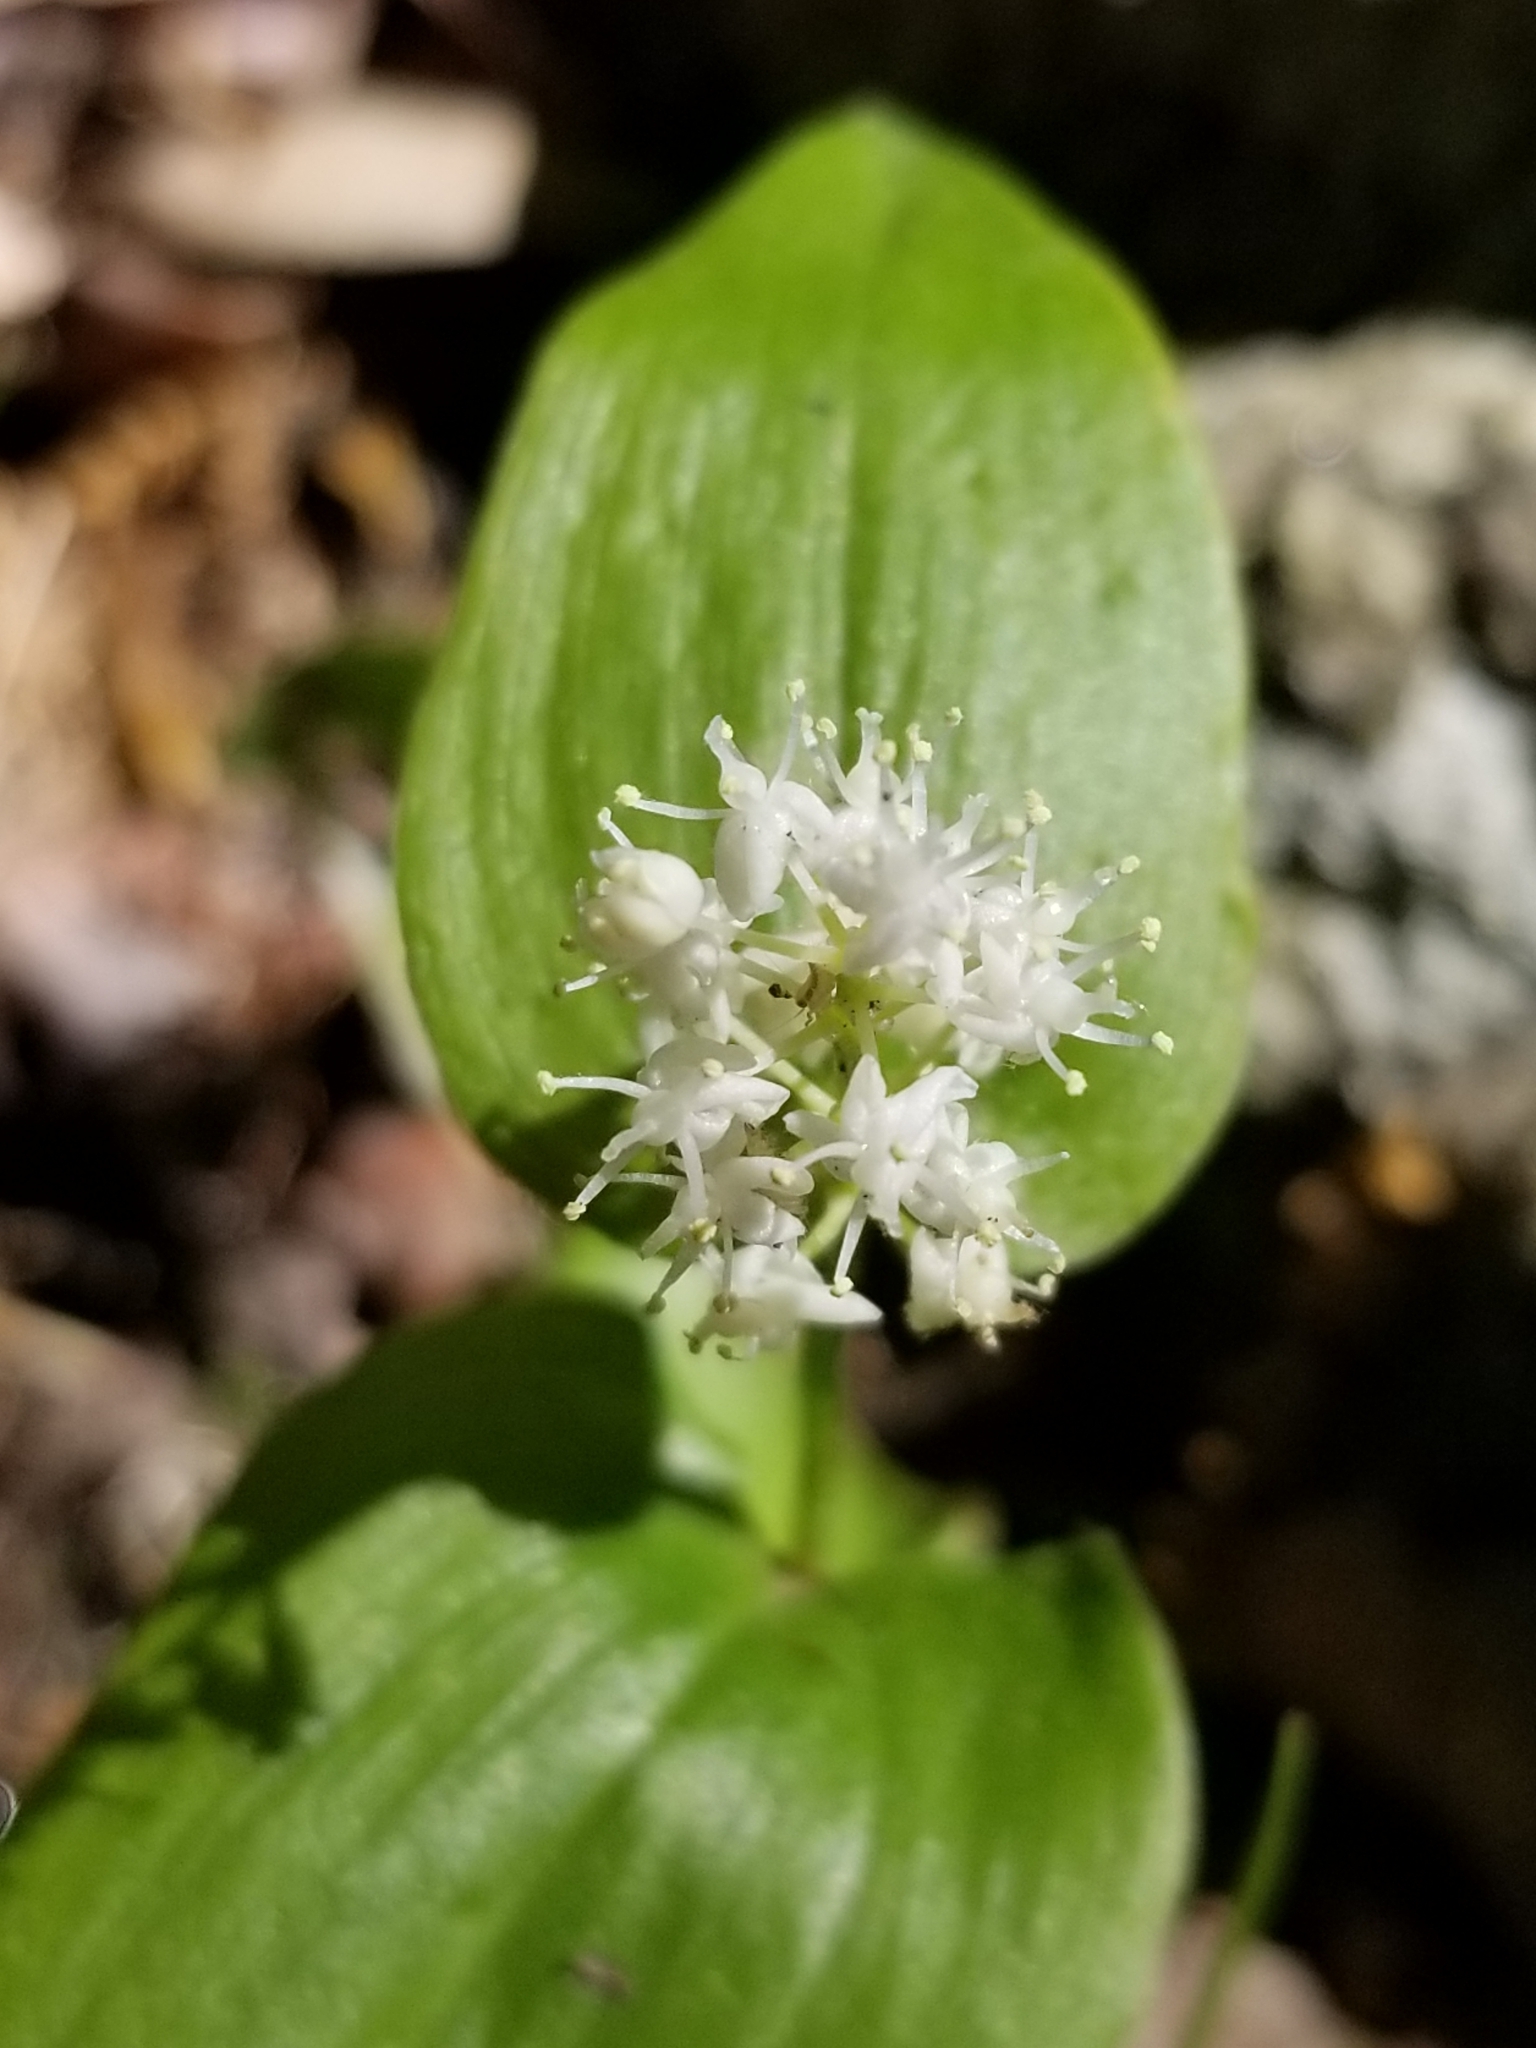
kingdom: Plantae
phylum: Tracheophyta
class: Liliopsida
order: Asparagales
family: Asparagaceae
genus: Maianthemum
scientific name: Maianthemum canadense
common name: False lily-of-the-valley
